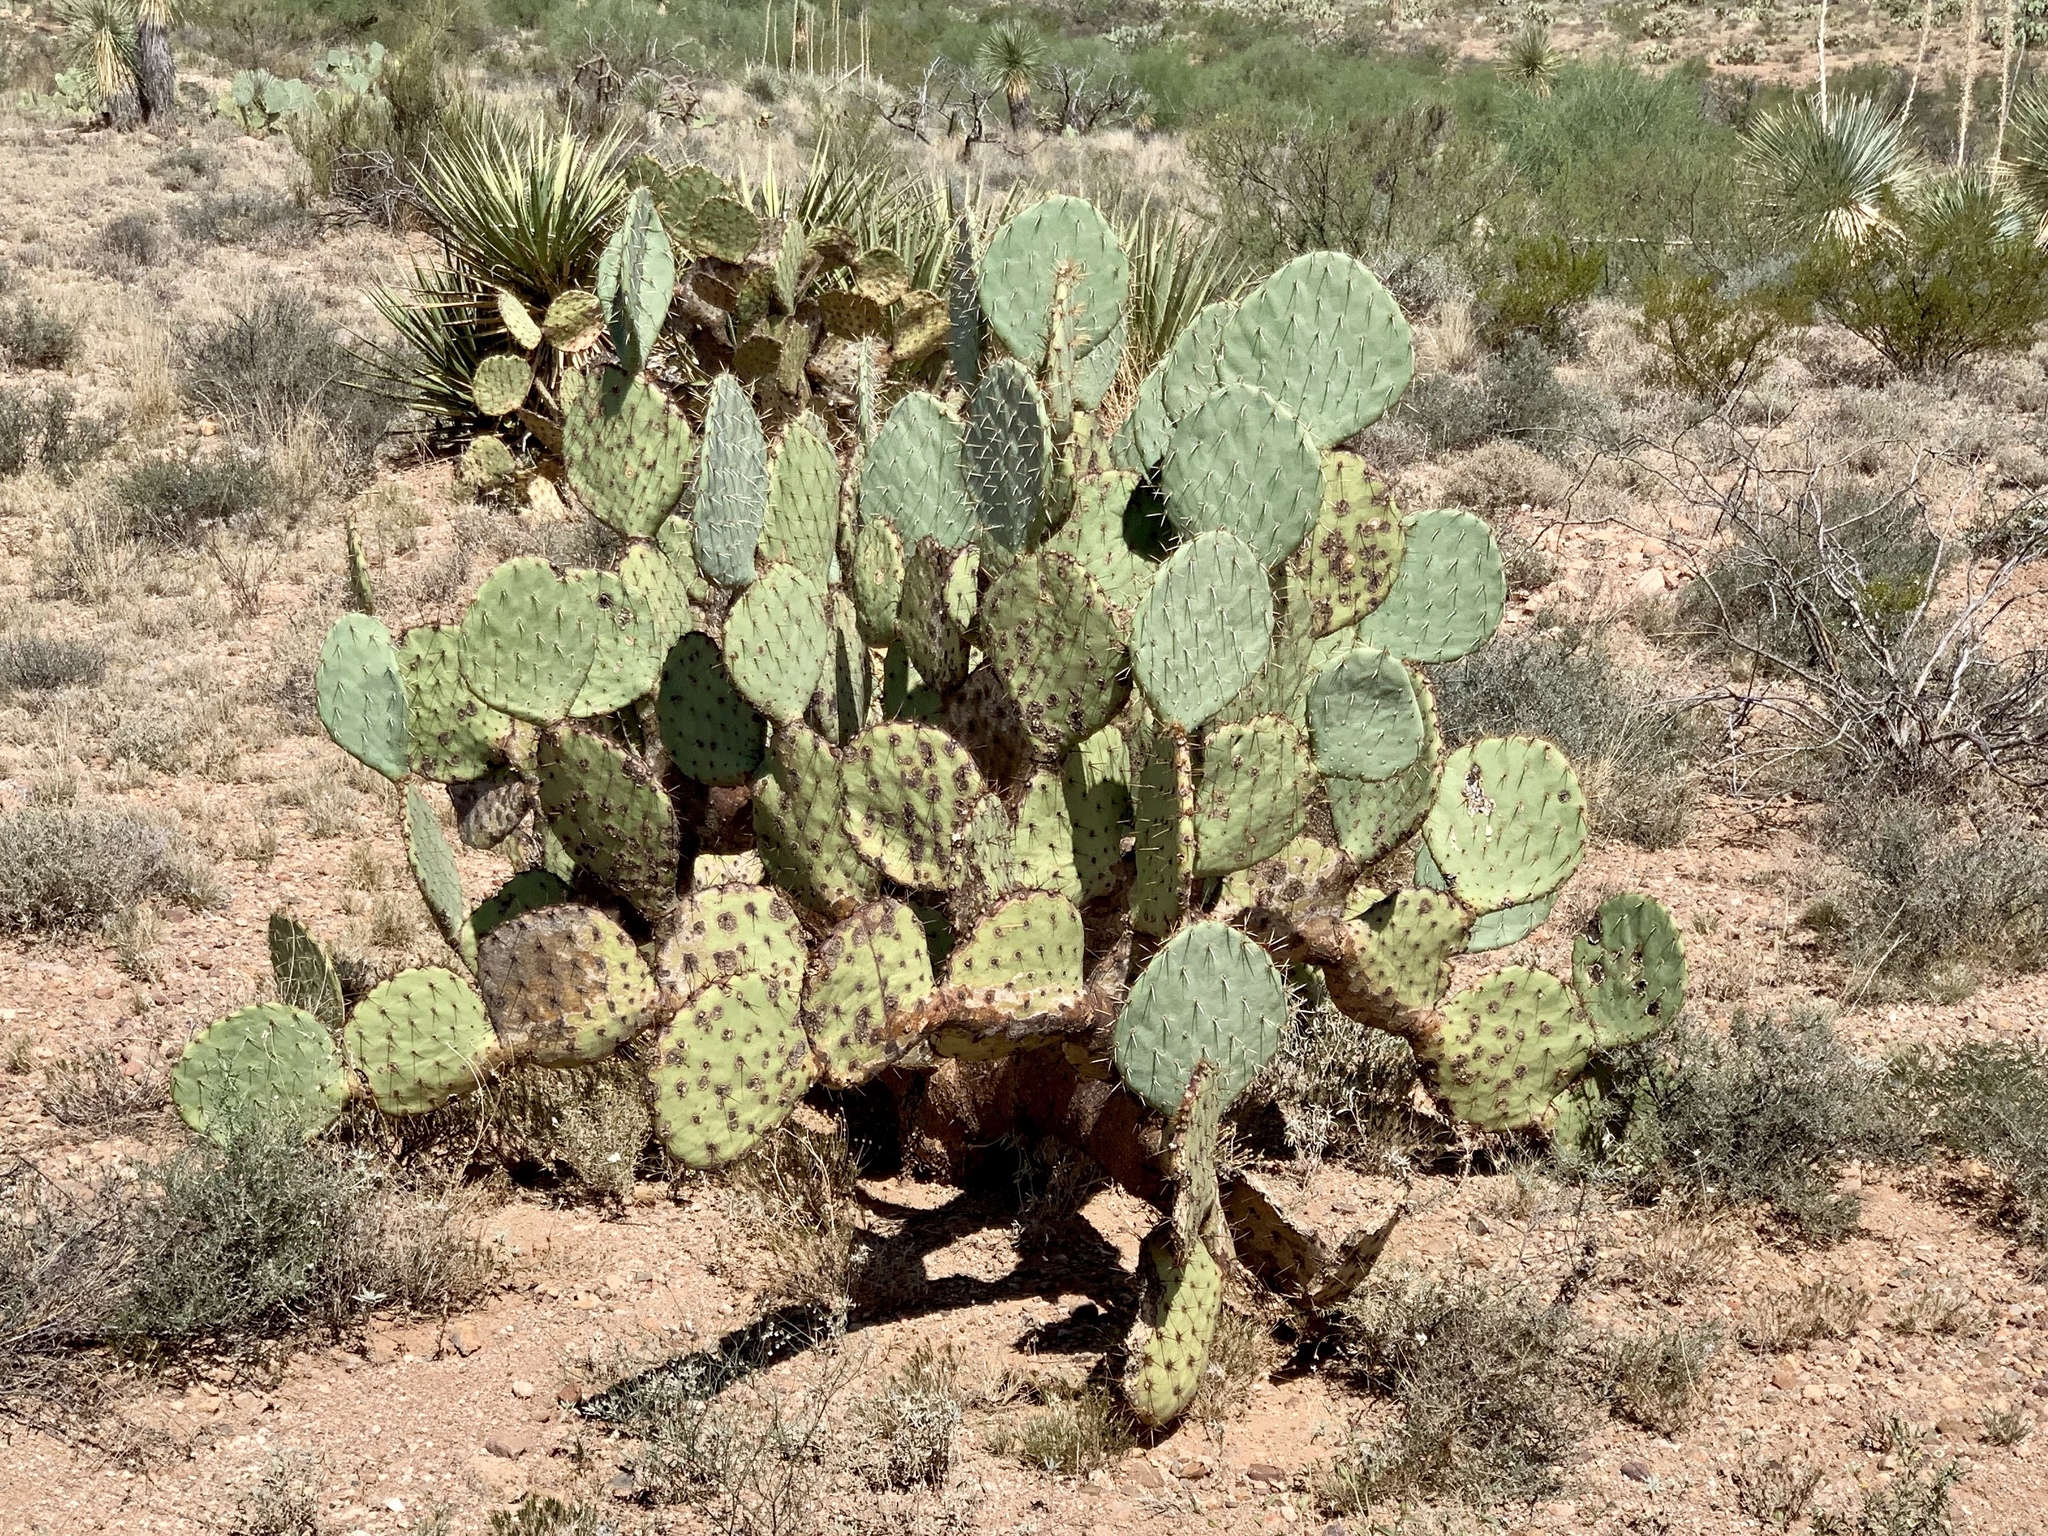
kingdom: Plantae
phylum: Tracheophyta
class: Magnoliopsida
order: Caryophyllales
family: Cactaceae
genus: Opuntia
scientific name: Opuntia engelmannii
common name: Cactus-apple
